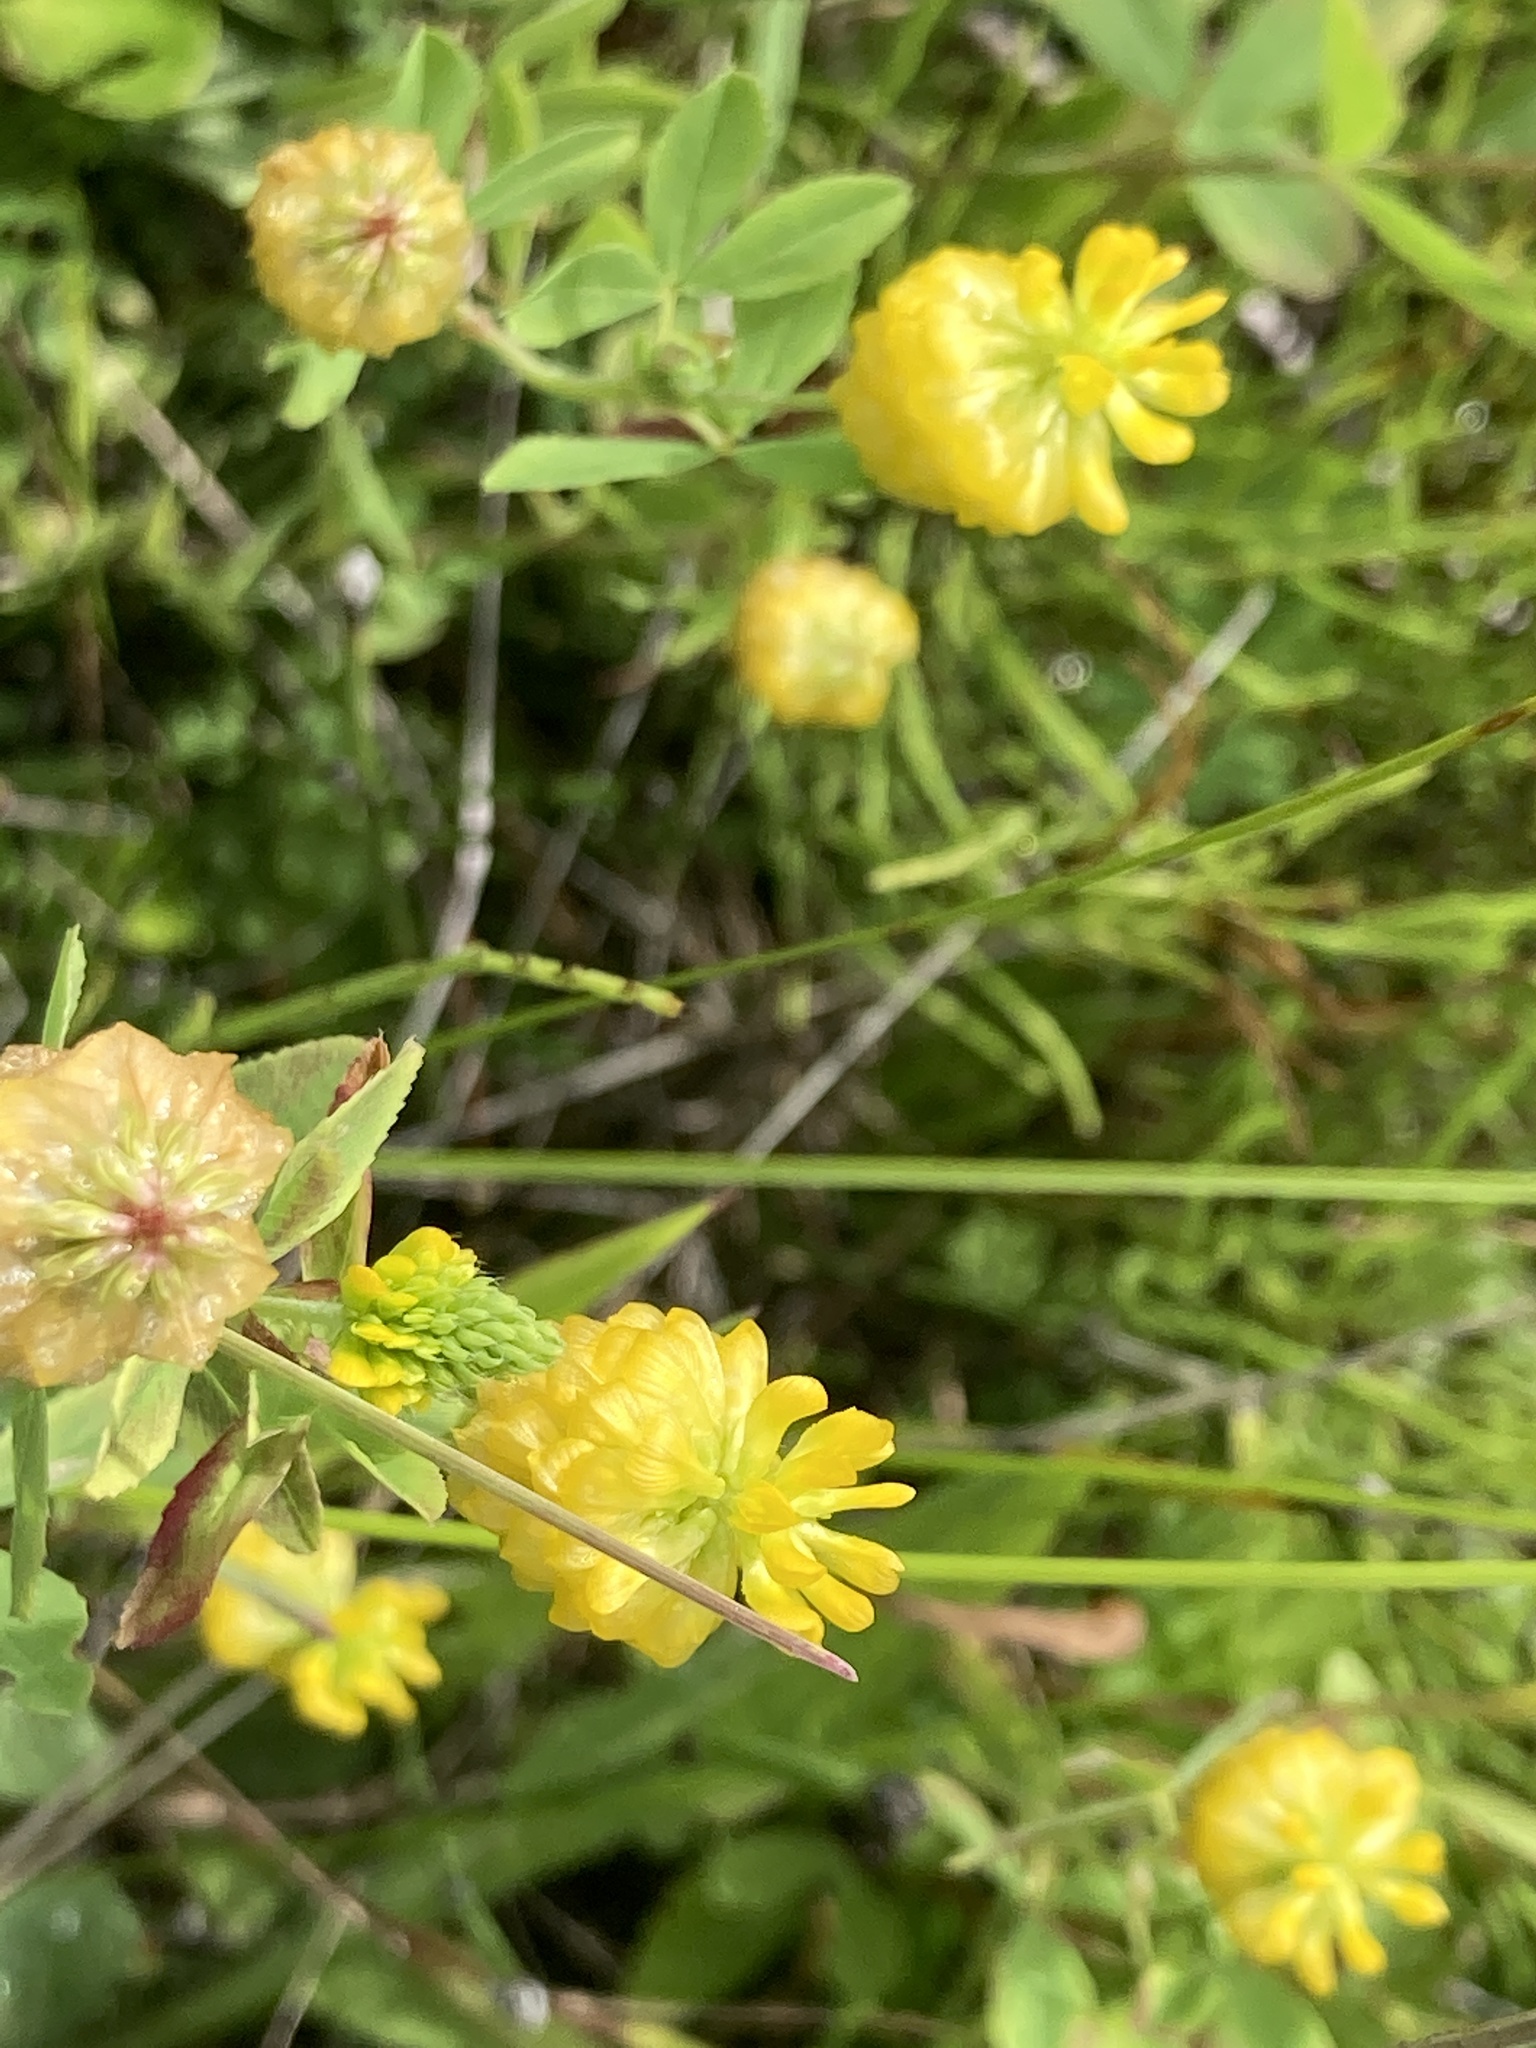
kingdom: Plantae
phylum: Tracheophyta
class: Magnoliopsida
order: Fabales
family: Fabaceae
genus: Trifolium
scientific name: Trifolium aureum
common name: Golden clover
